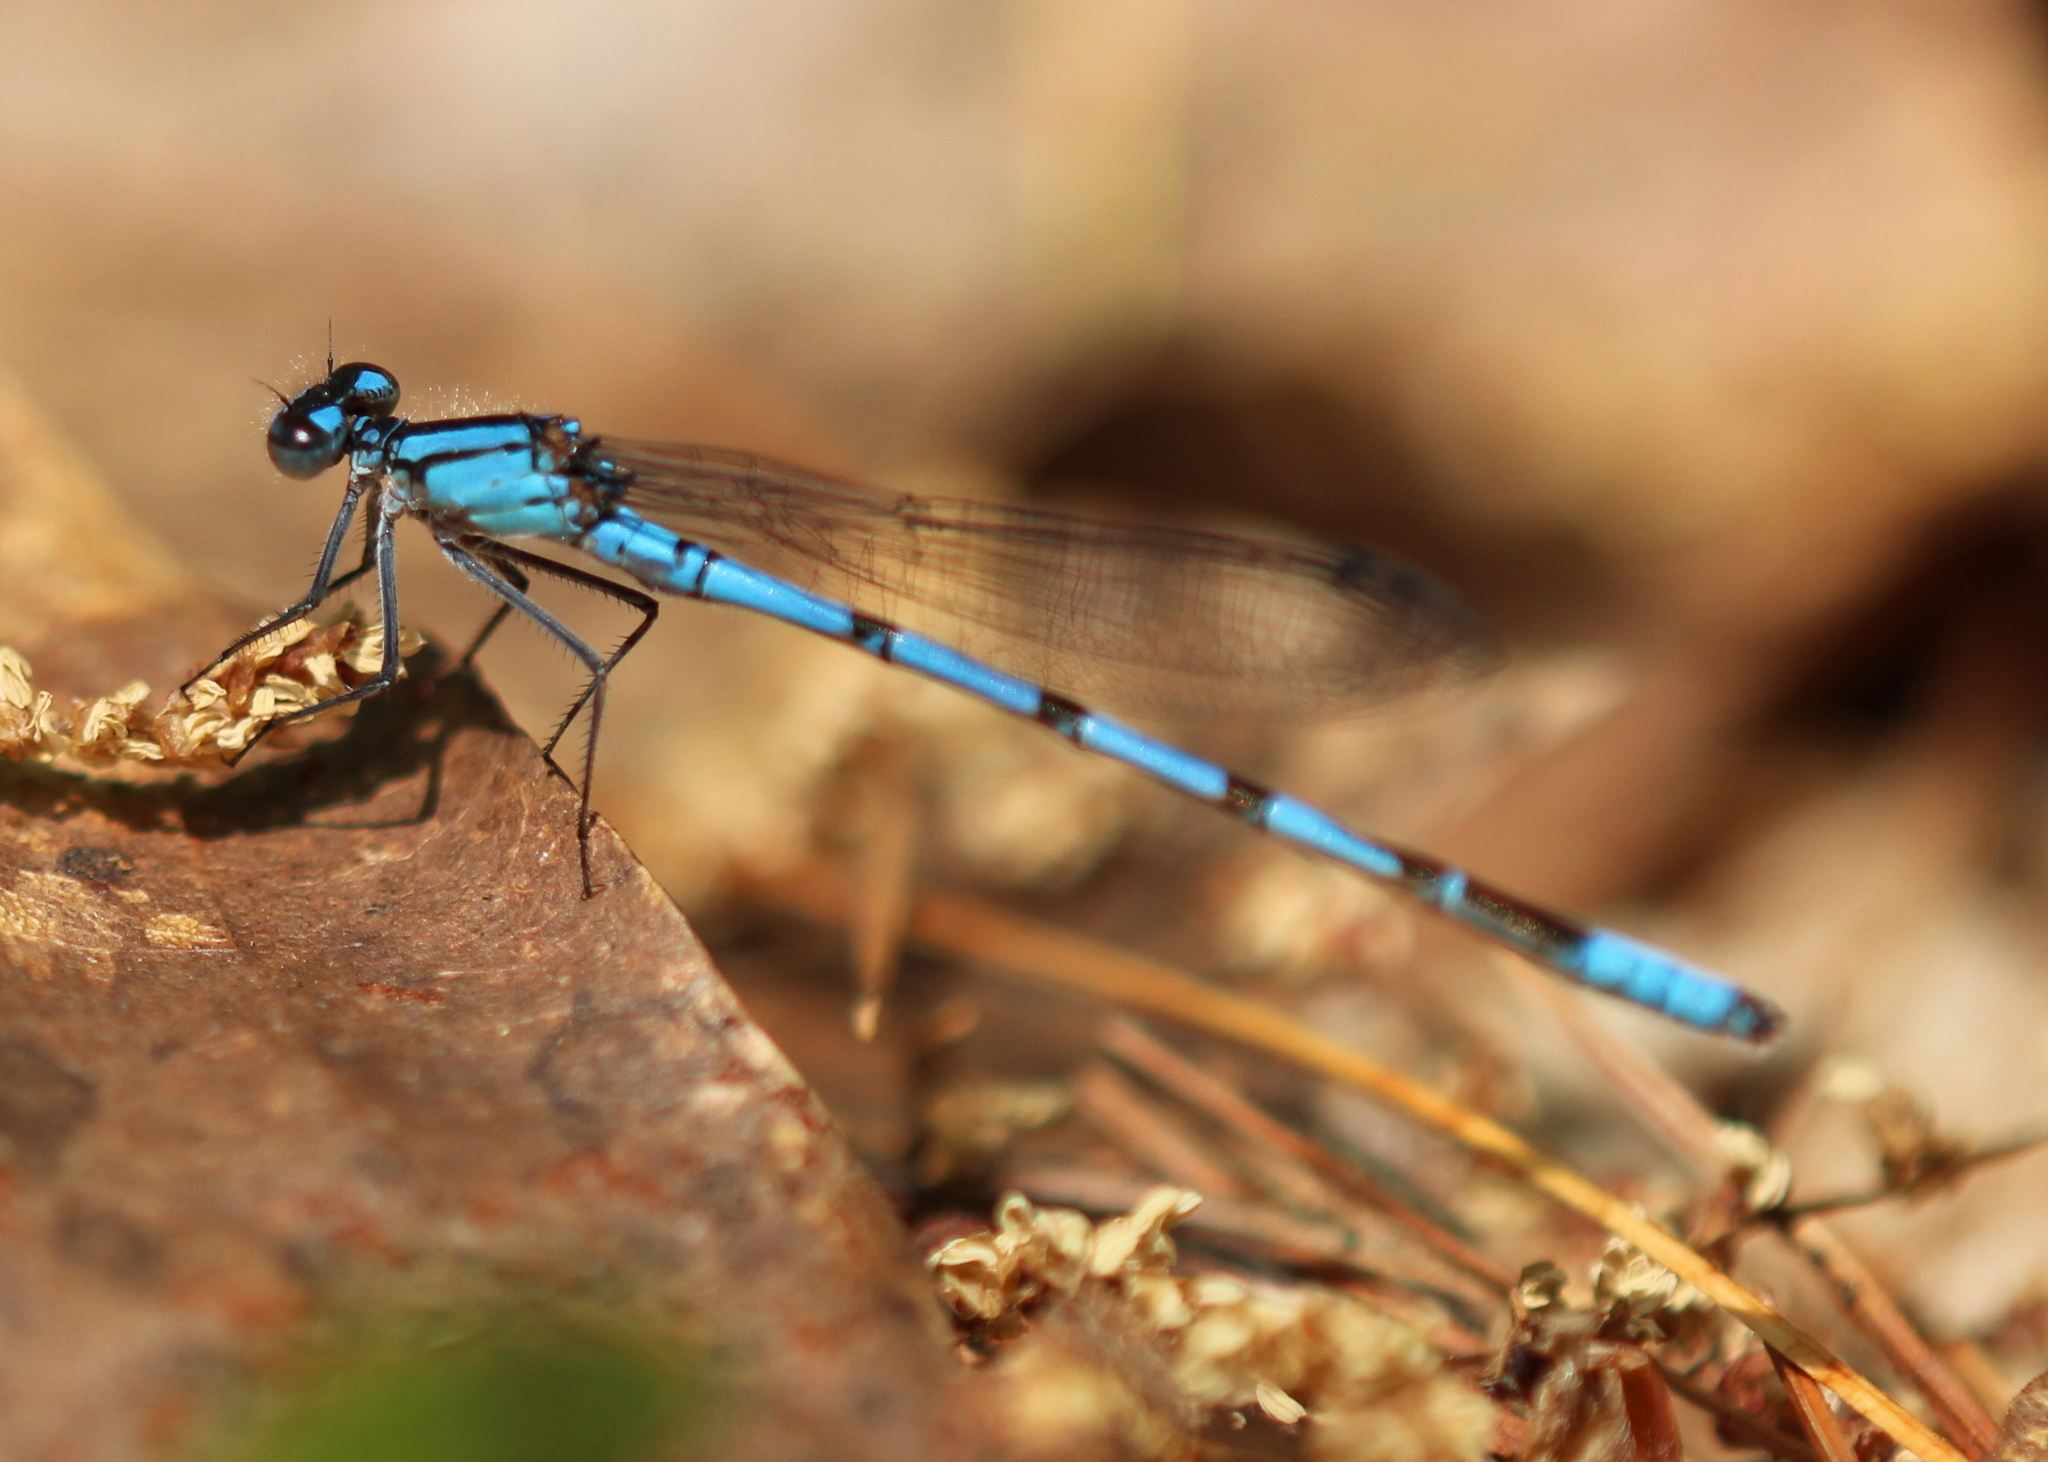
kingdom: Animalia
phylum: Arthropoda
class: Insecta
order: Odonata
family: Coenagrionidae
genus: Coenagrion
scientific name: Coenagrion resolutum
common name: Taiga bluet
